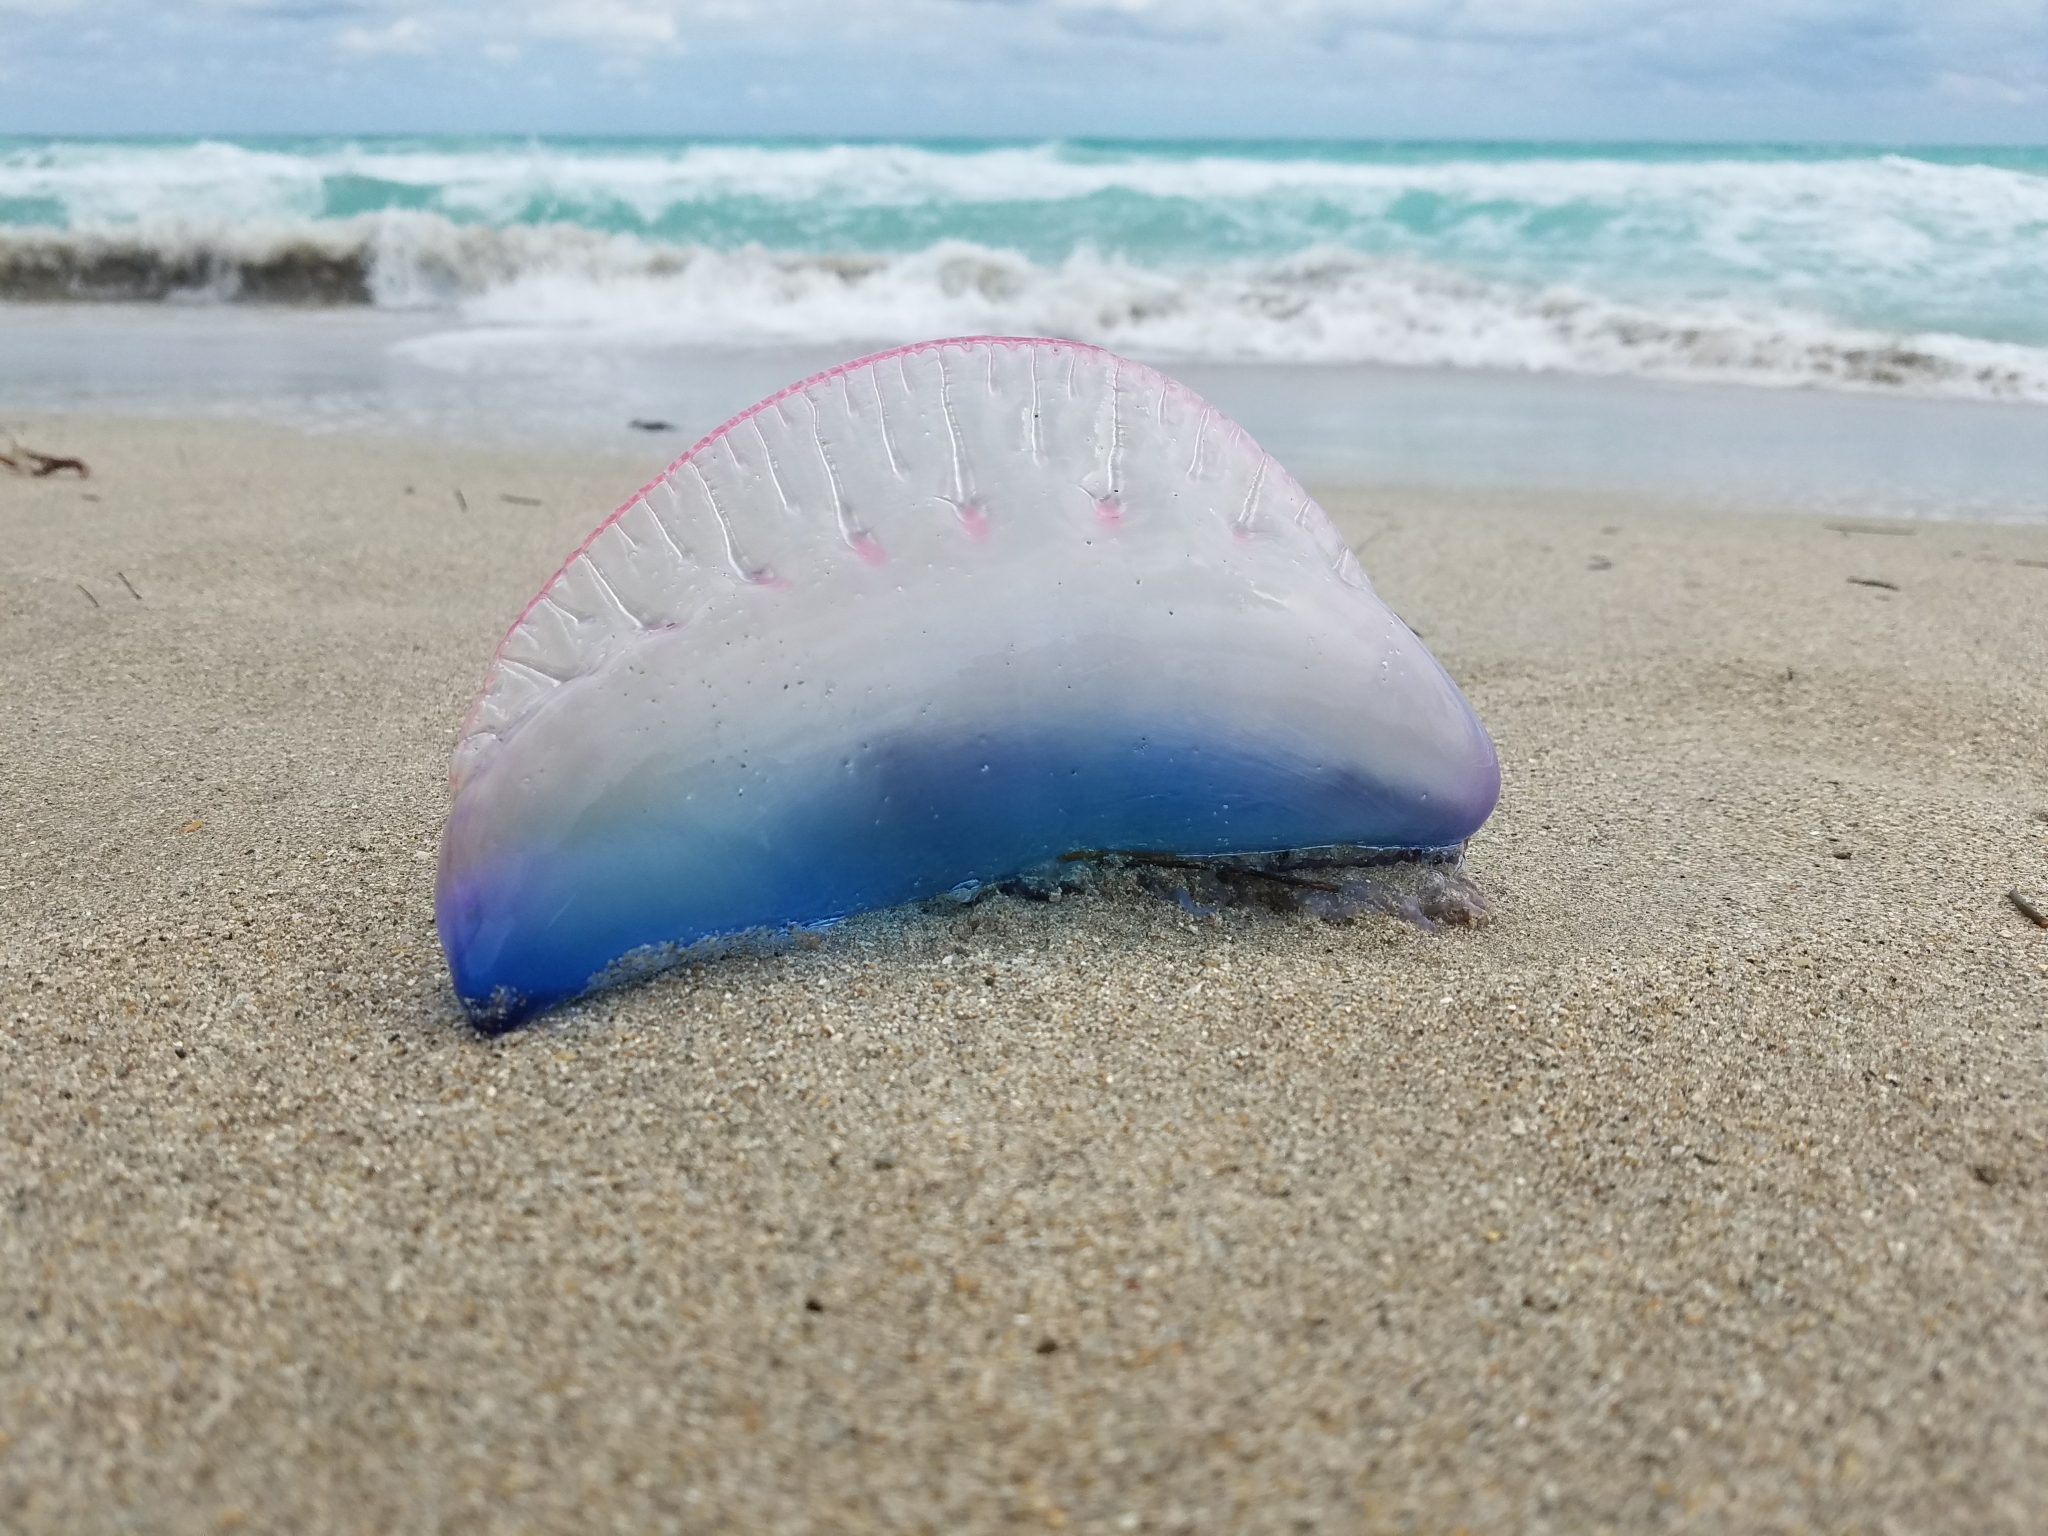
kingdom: Animalia
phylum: Cnidaria
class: Hydrozoa
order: Siphonophorae
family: Physaliidae
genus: Physalia
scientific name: Physalia physalis
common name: Portuguese man-of-war
